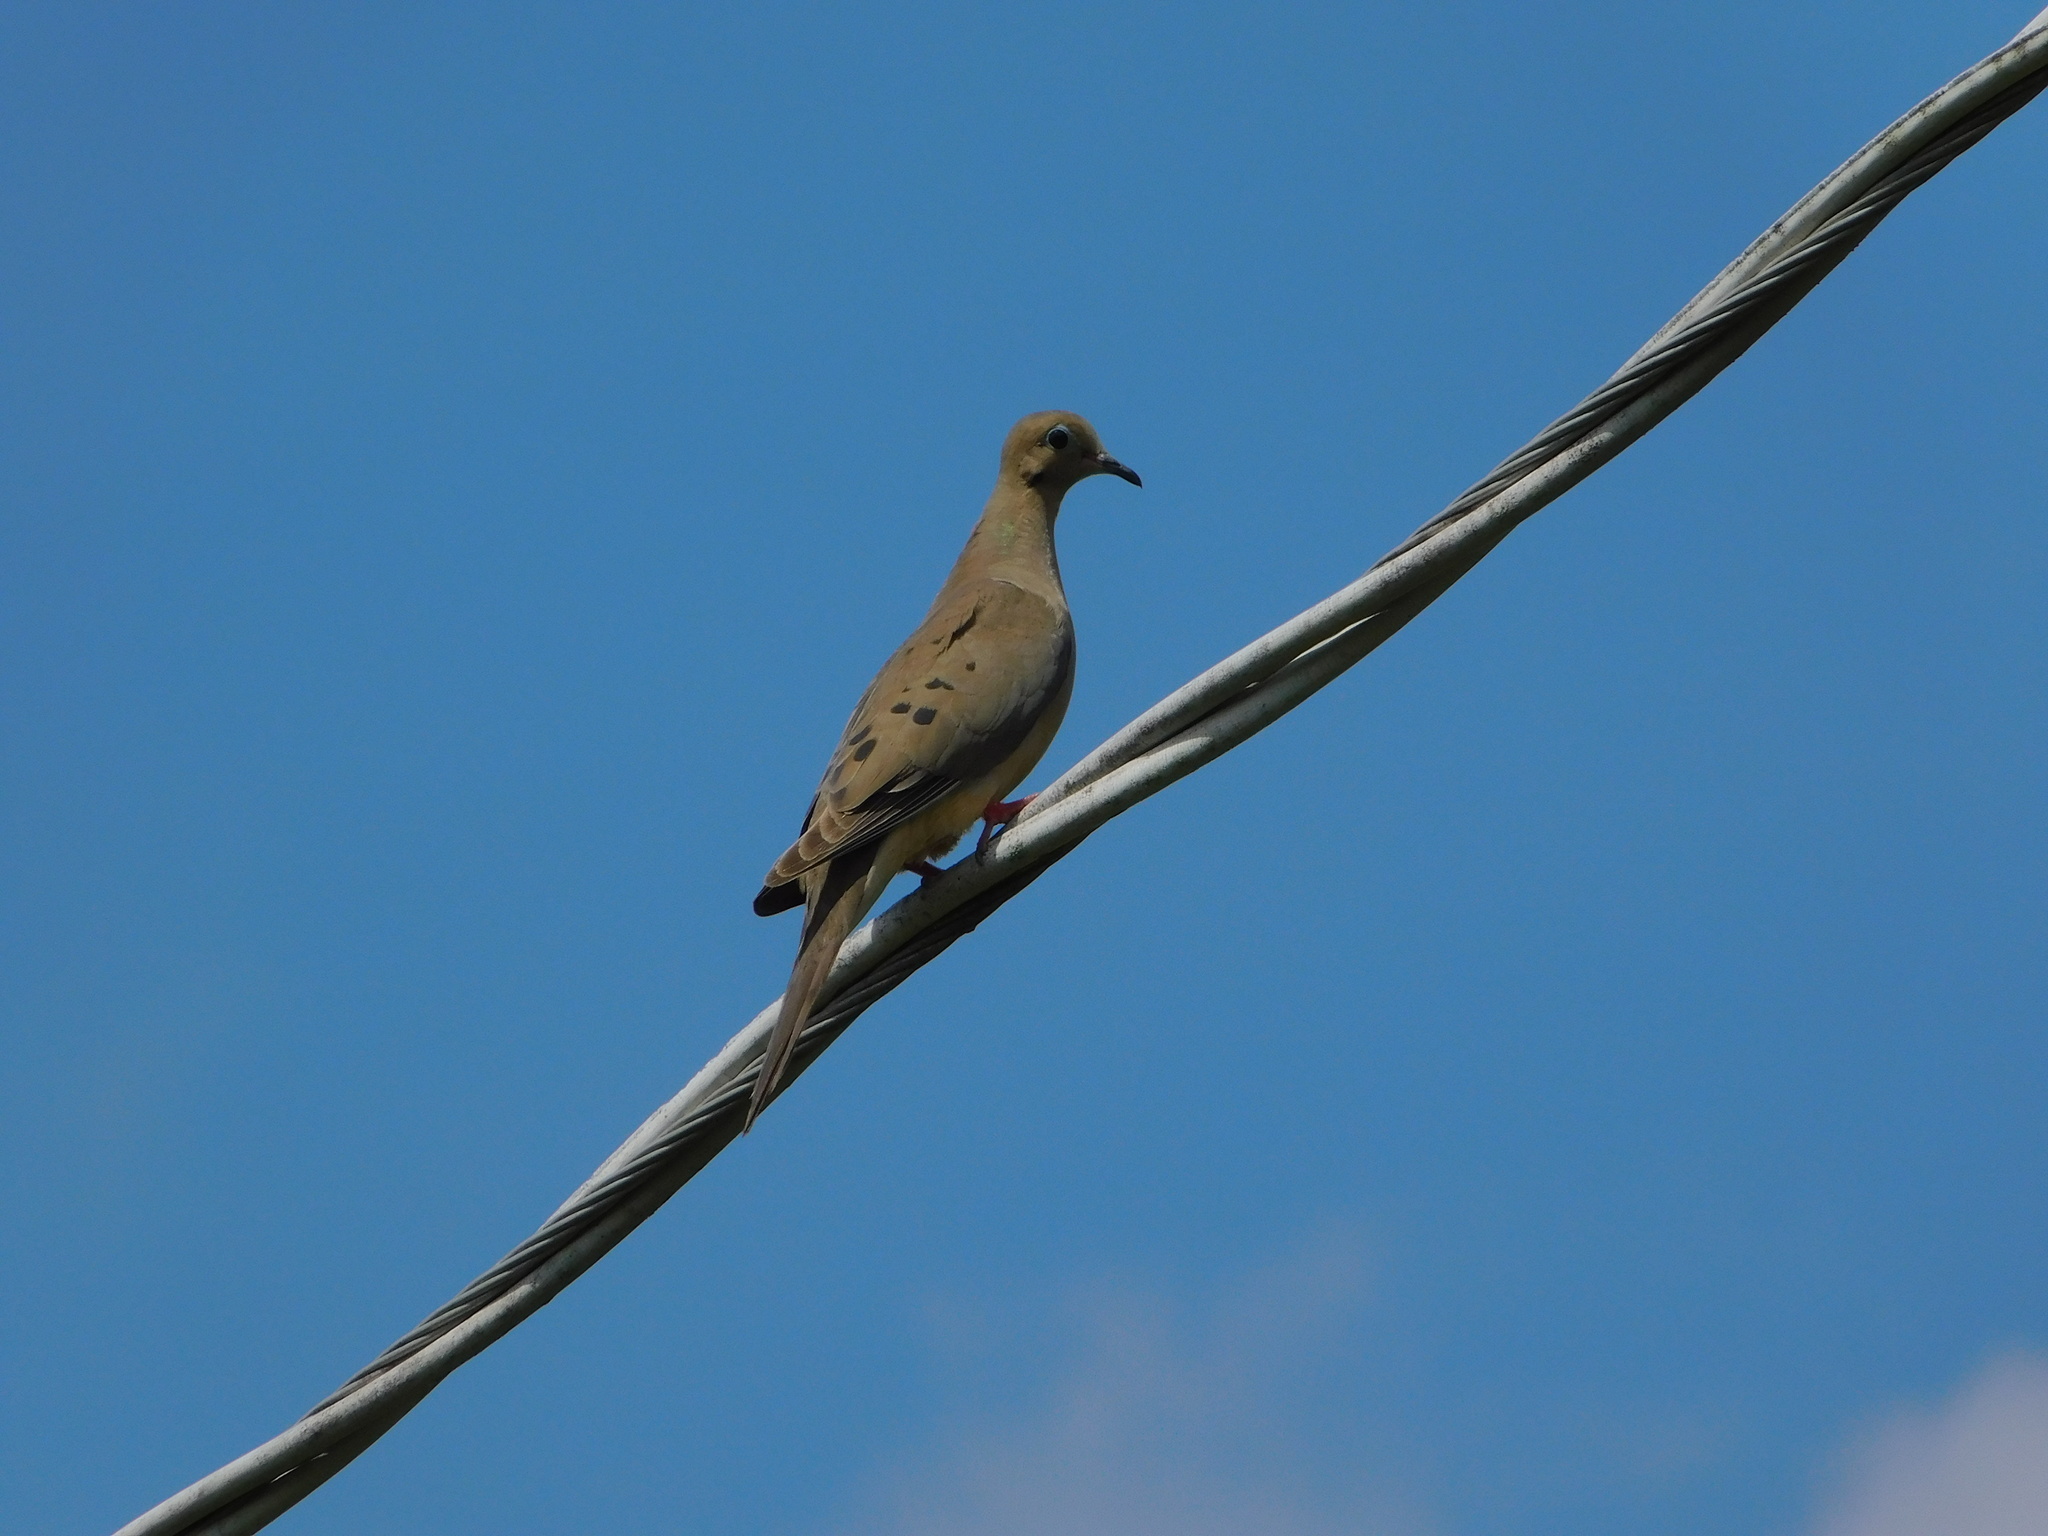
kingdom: Animalia
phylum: Chordata
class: Aves
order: Columbiformes
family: Columbidae
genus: Zenaida
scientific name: Zenaida macroura
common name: Mourning dove
